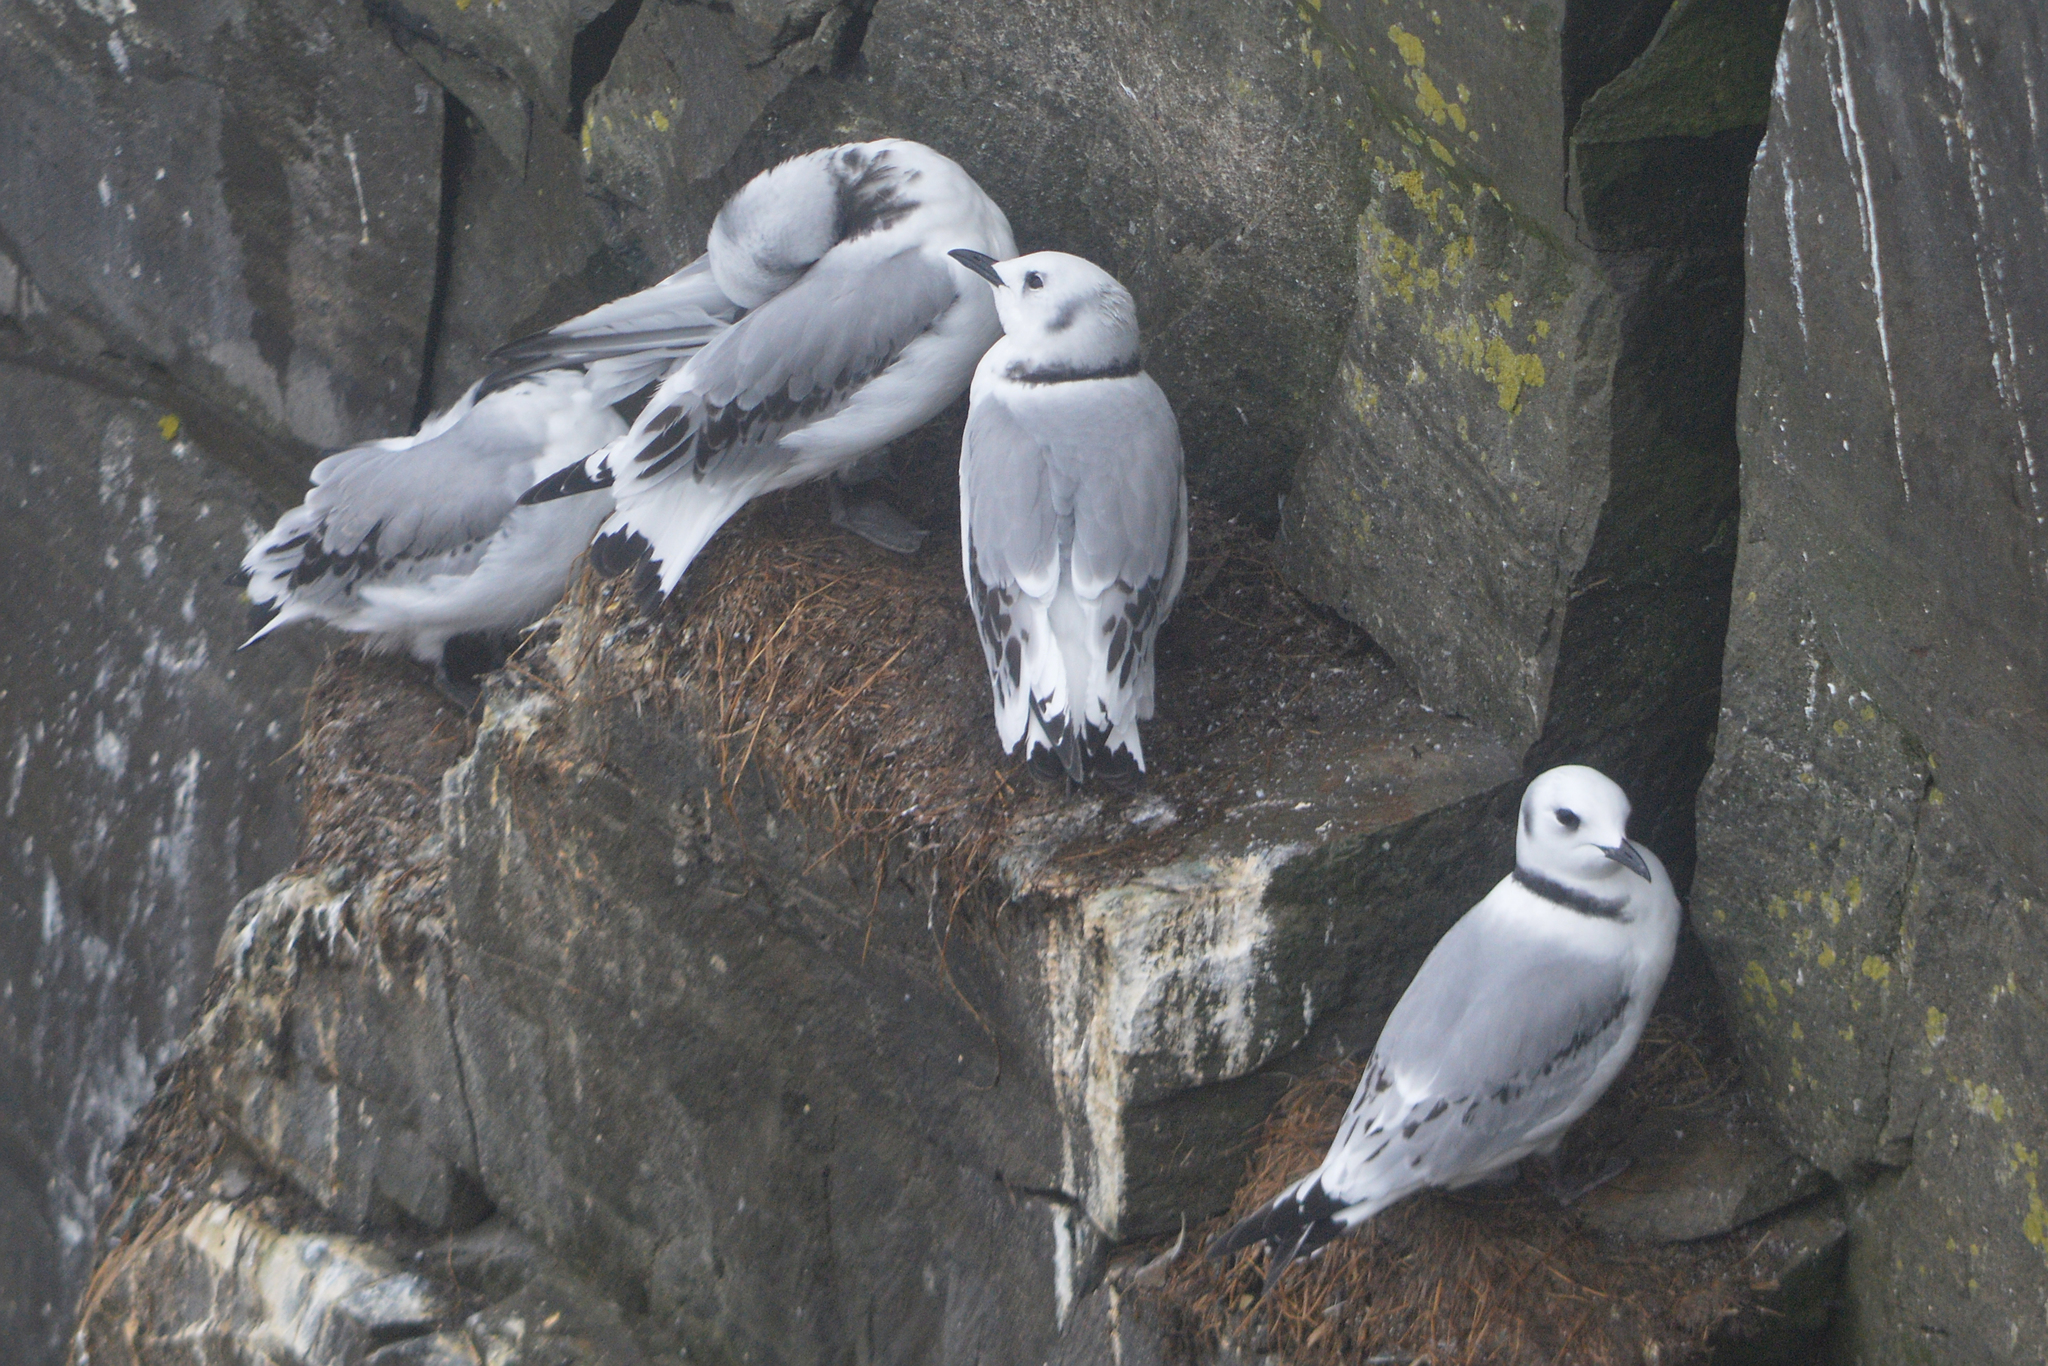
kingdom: Animalia
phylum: Chordata
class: Aves
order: Charadriiformes
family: Laridae
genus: Rissa
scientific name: Rissa tridactyla
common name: Black-legged kittiwake
